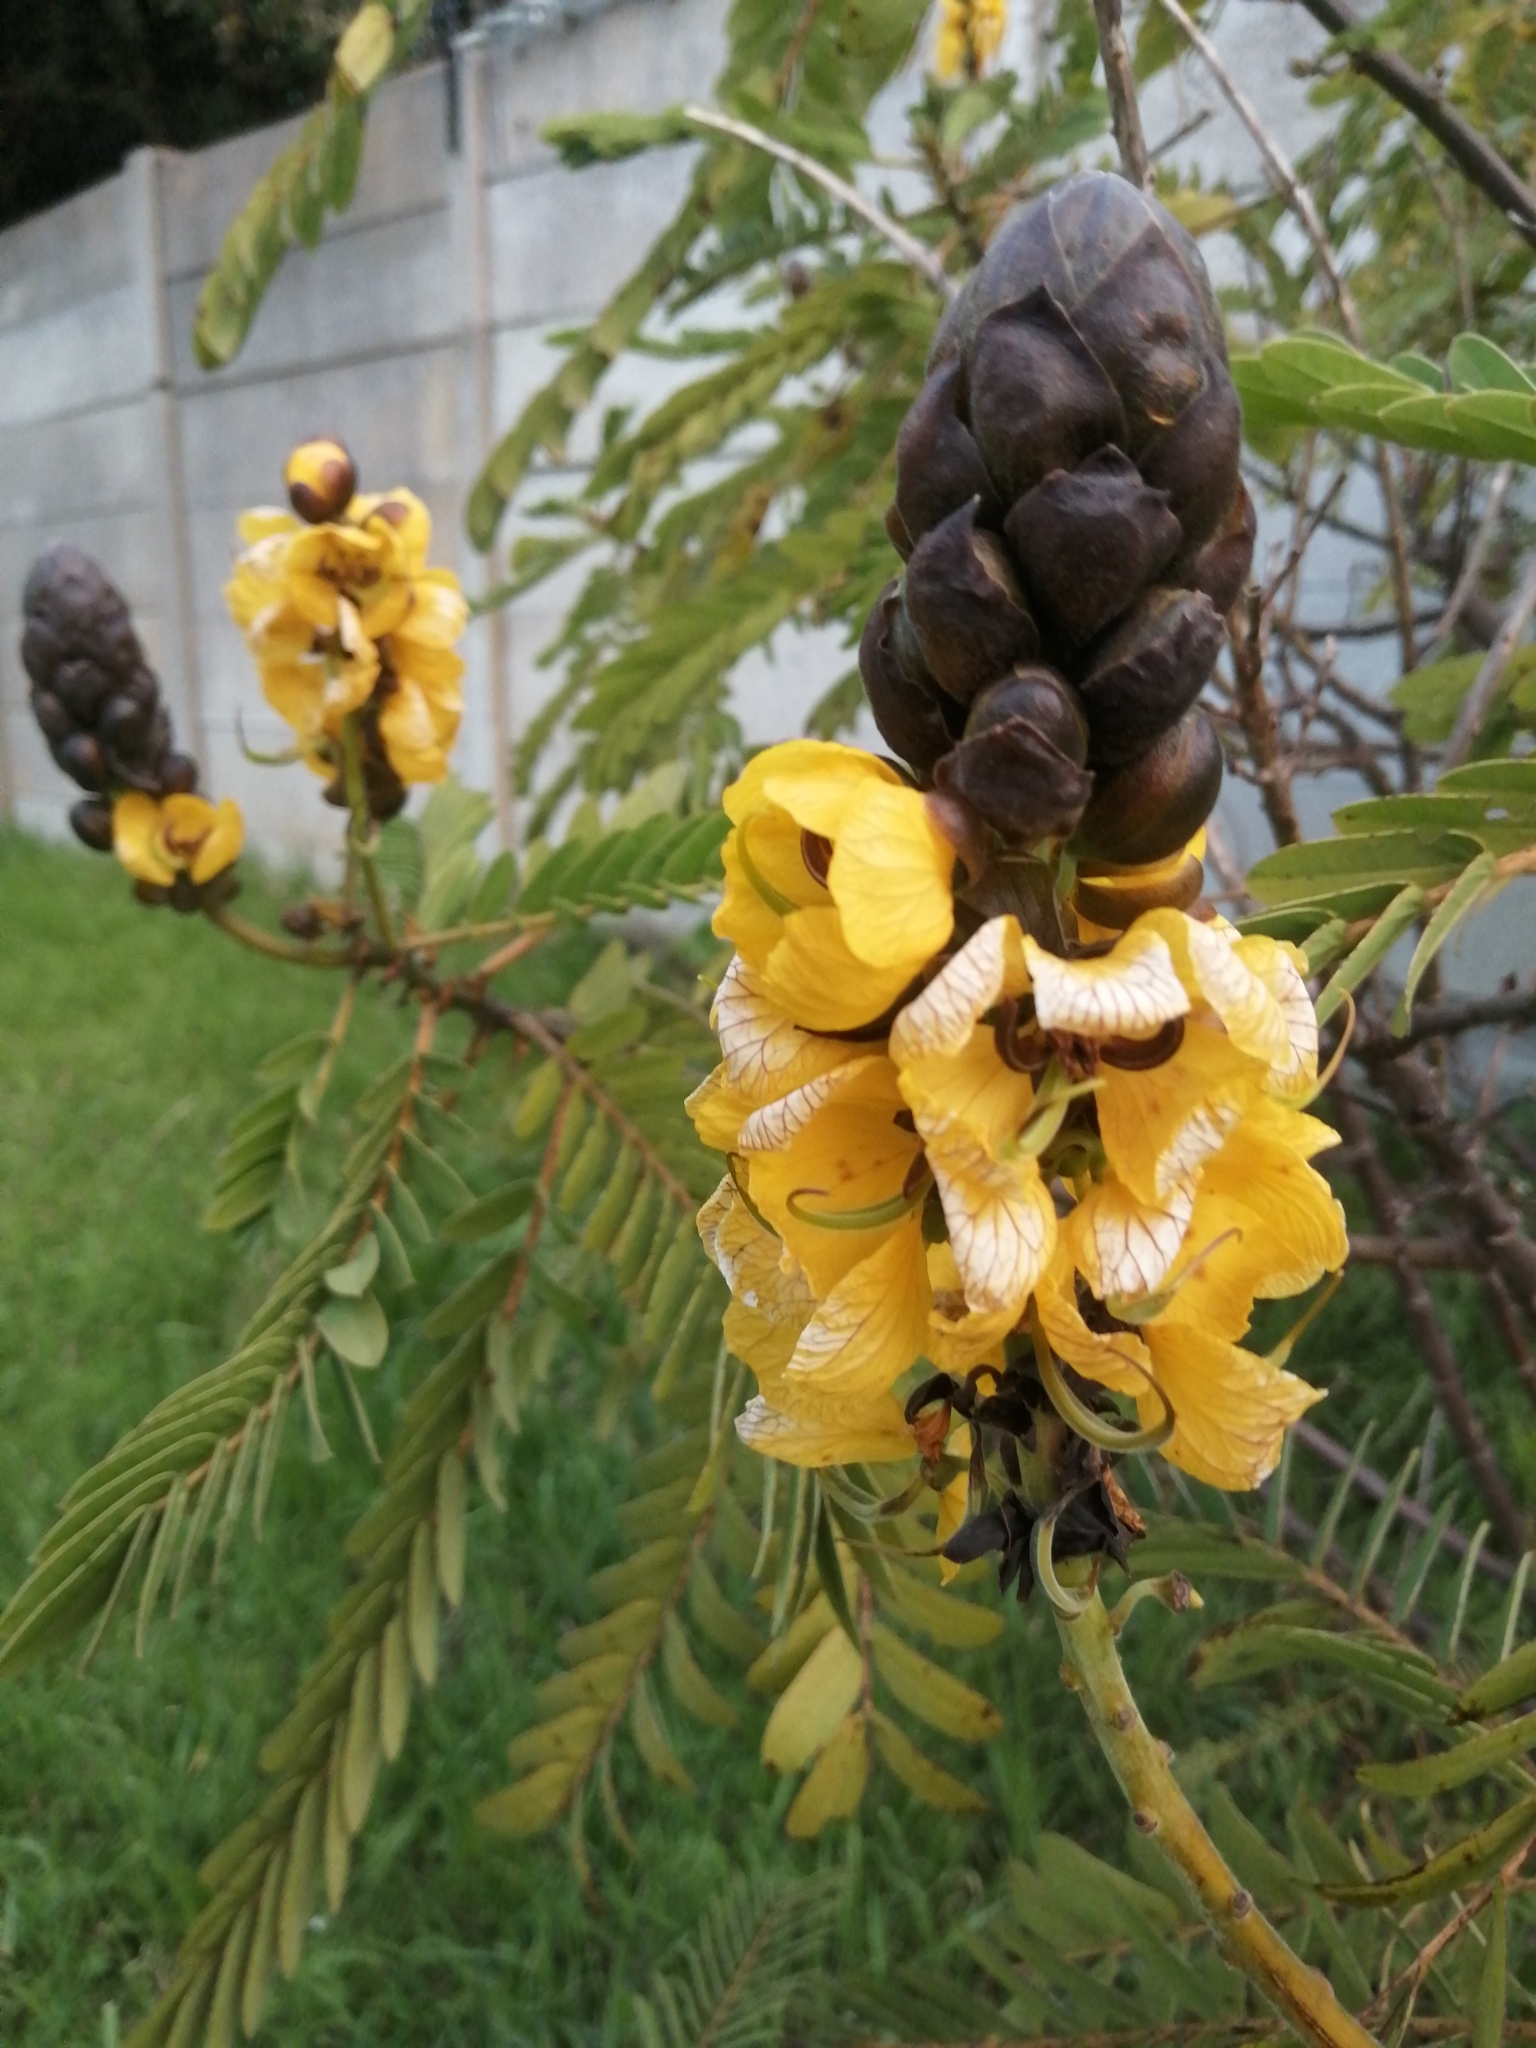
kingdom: Plantae
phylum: Tracheophyta
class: Magnoliopsida
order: Fabales
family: Fabaceae
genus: Senna
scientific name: Senna didymobotrya
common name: African senna
